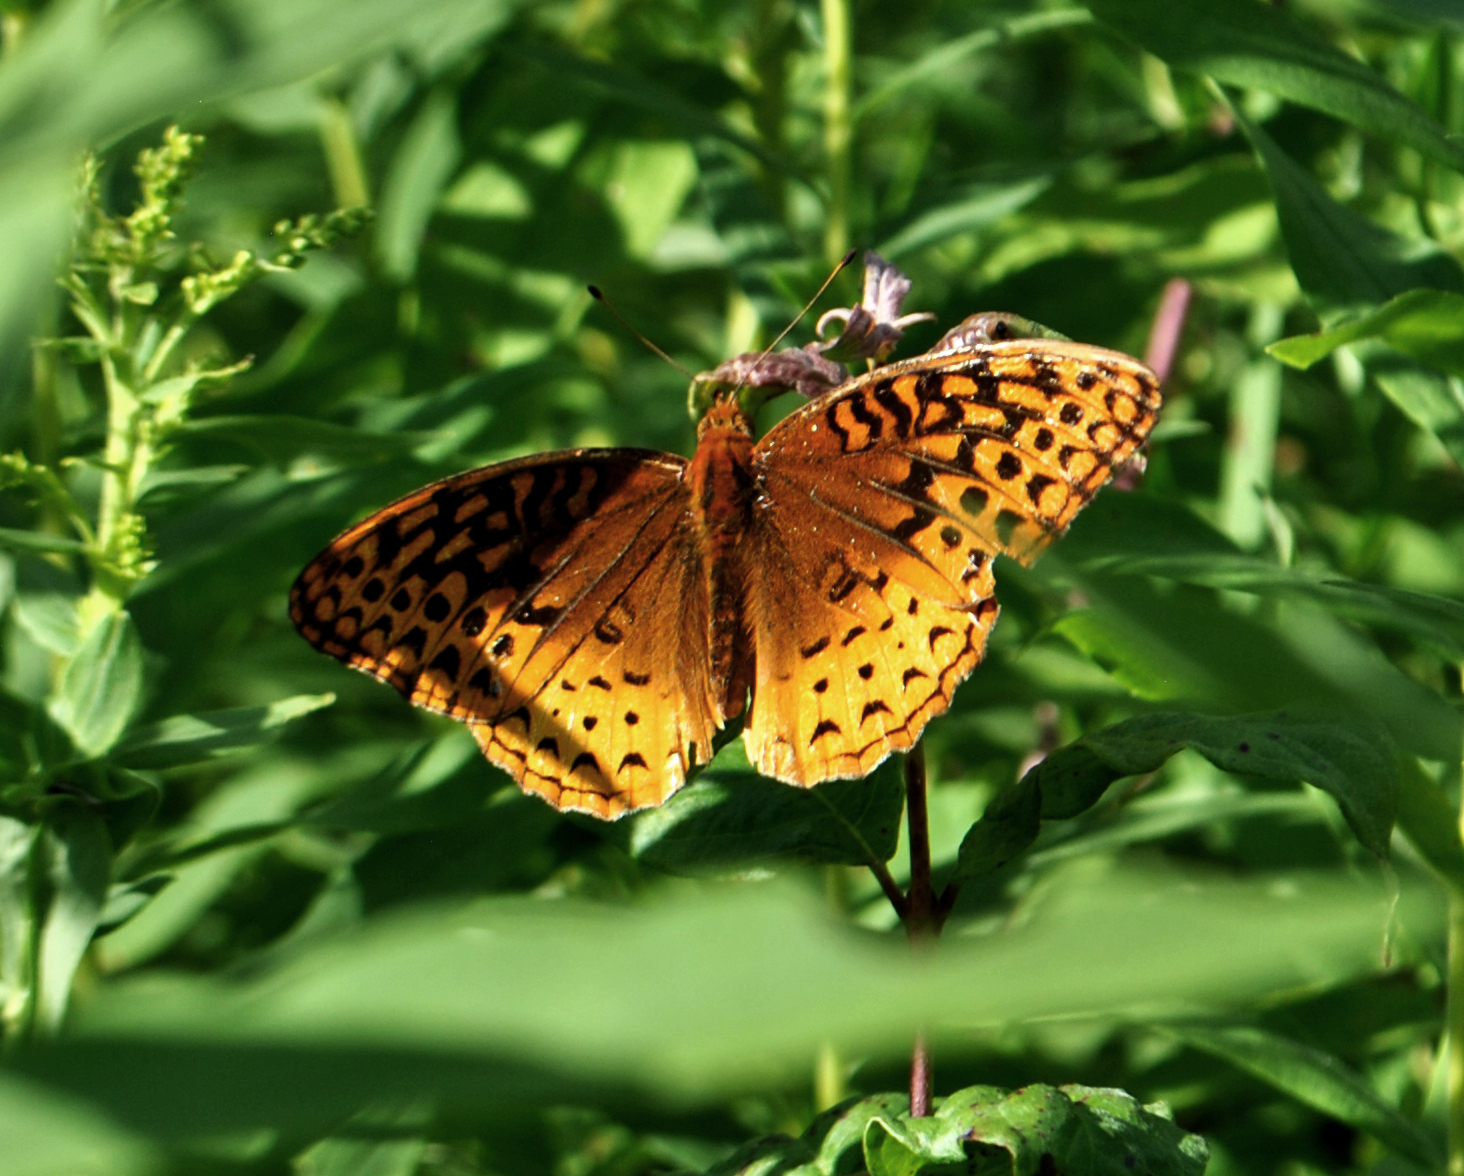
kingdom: Animalia
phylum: Arthropoda
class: Insecta
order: Lepidoptera
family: Nymphalidae
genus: Speyeria
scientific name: Speyeria cybele
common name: Great spangled fritillary
